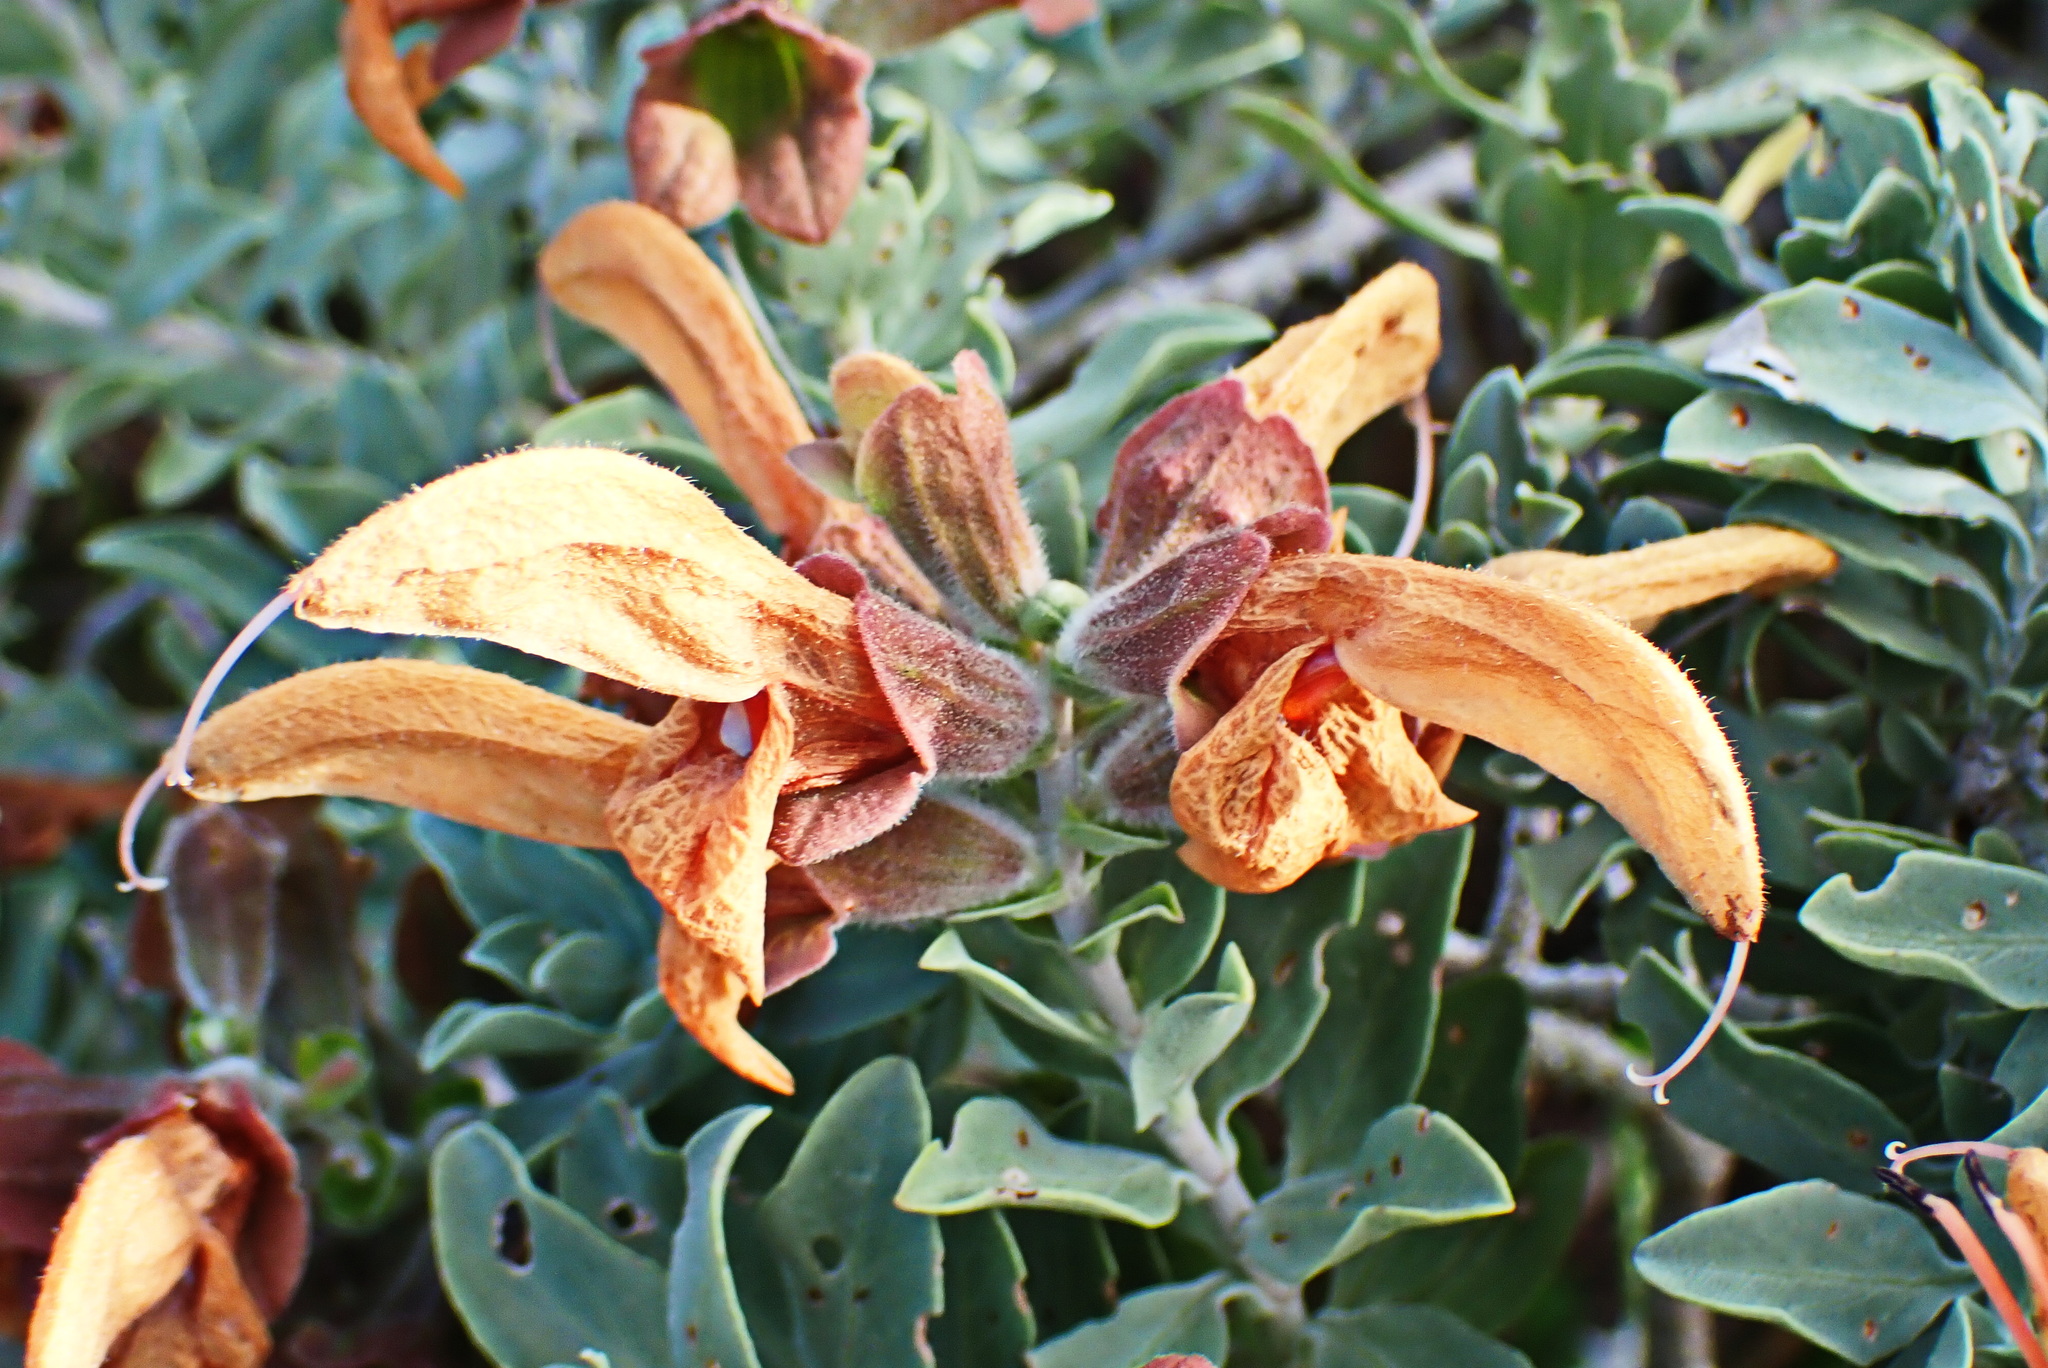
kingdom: Plantae
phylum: Tracheophyta
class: Magnoliopsida
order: Lamiales
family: Lamiaceae
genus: Salvia
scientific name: Salvia aurea
